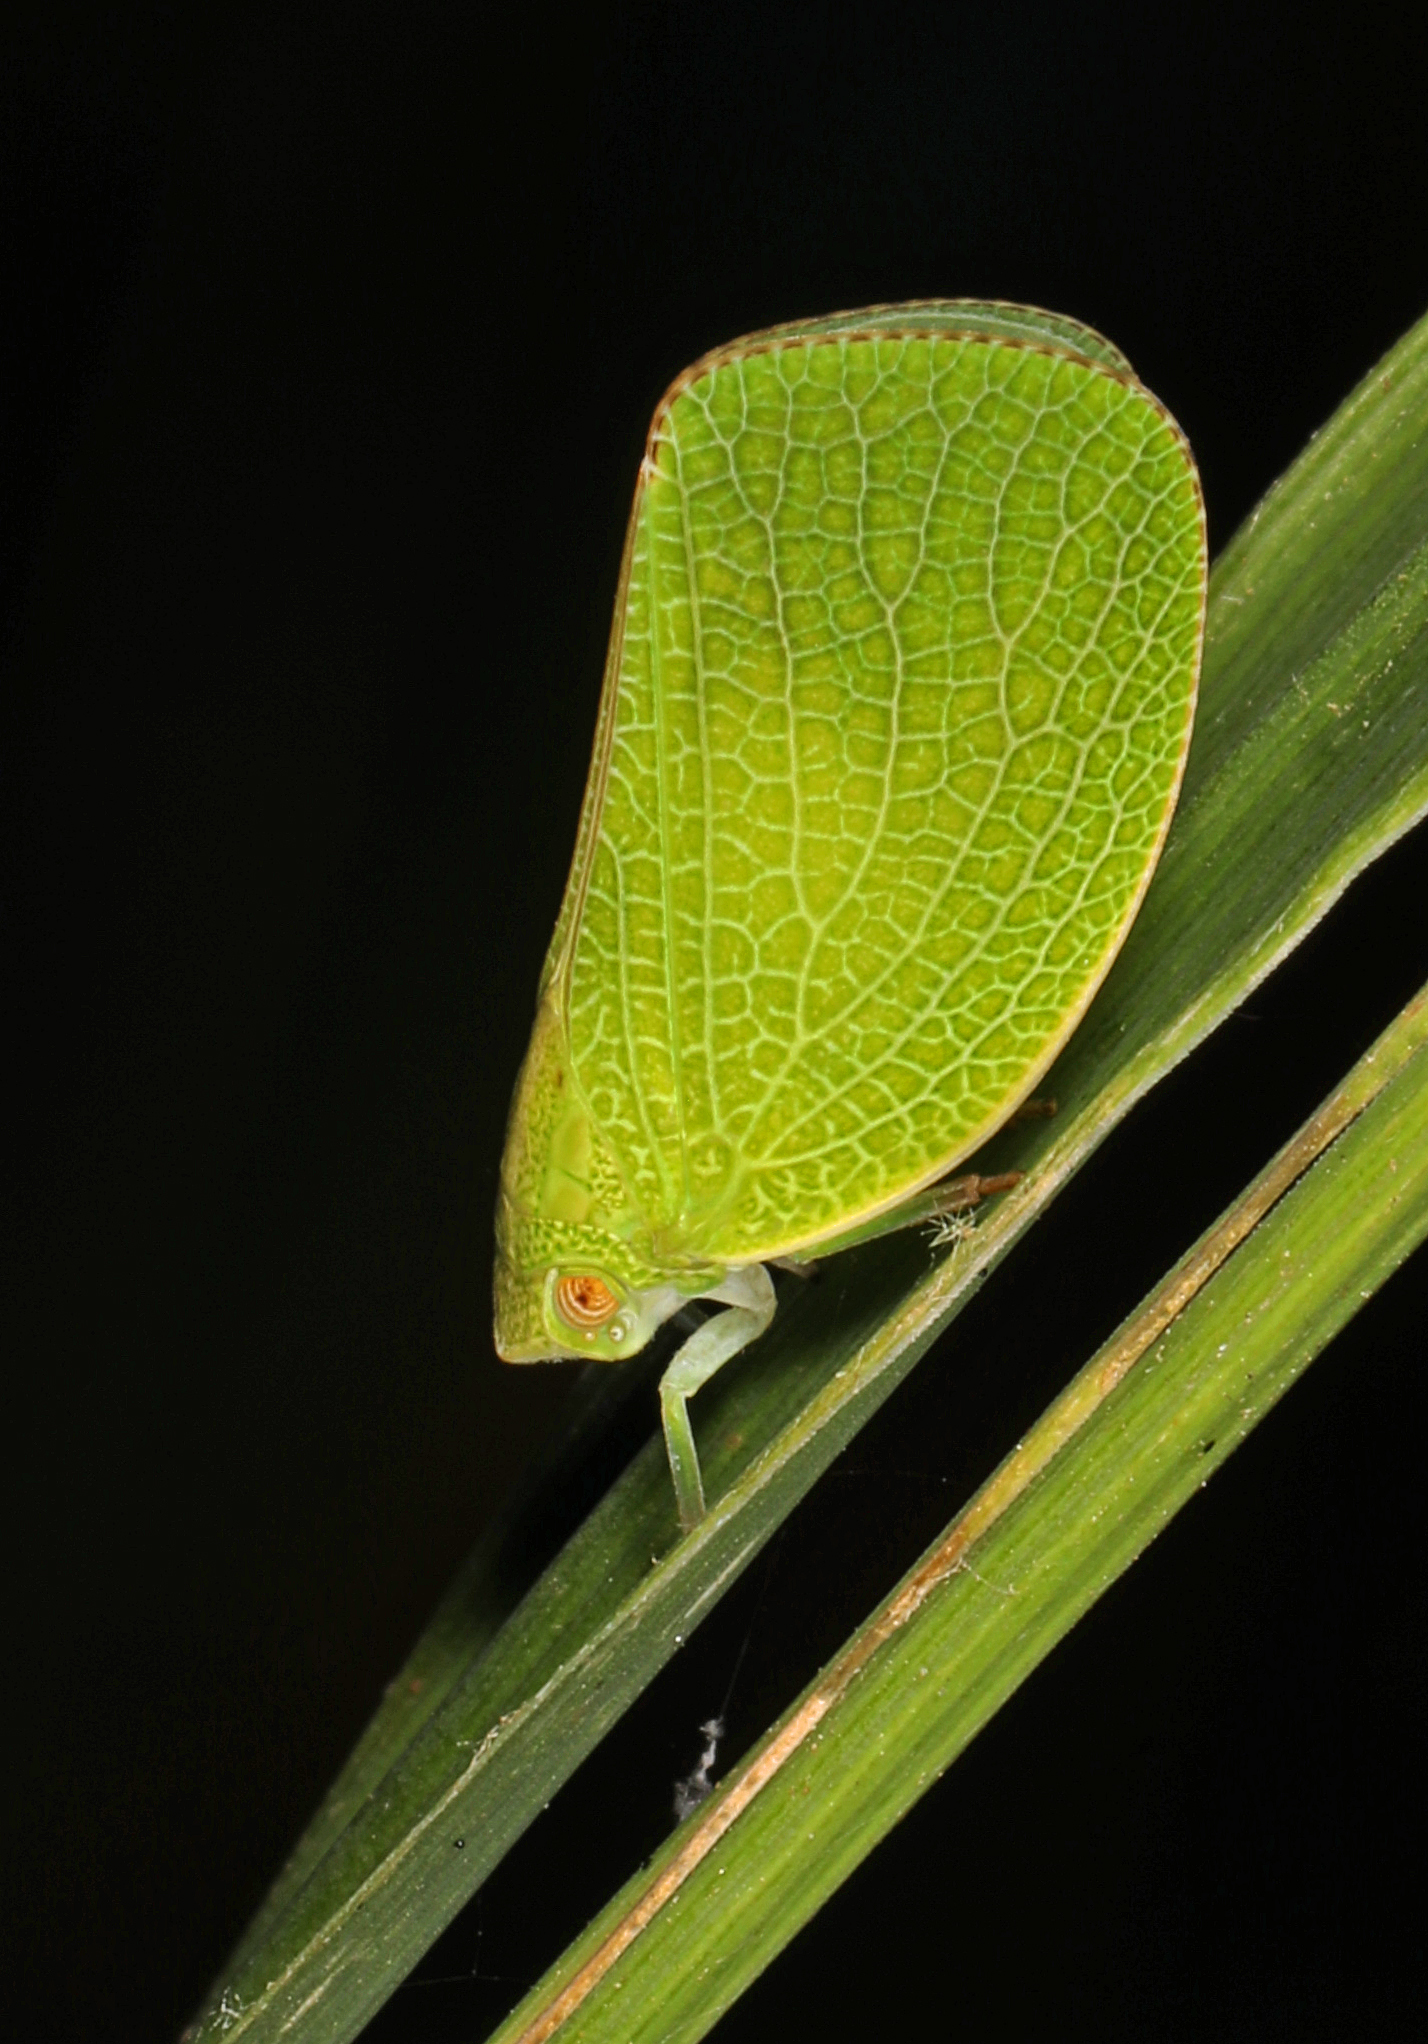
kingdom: Animalia
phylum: Arthropoda
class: Insecta
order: Hemiptera
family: Acanaloniidae
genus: Acanalonia
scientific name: Acanalonia conica
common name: Green cone-headed planthopper
